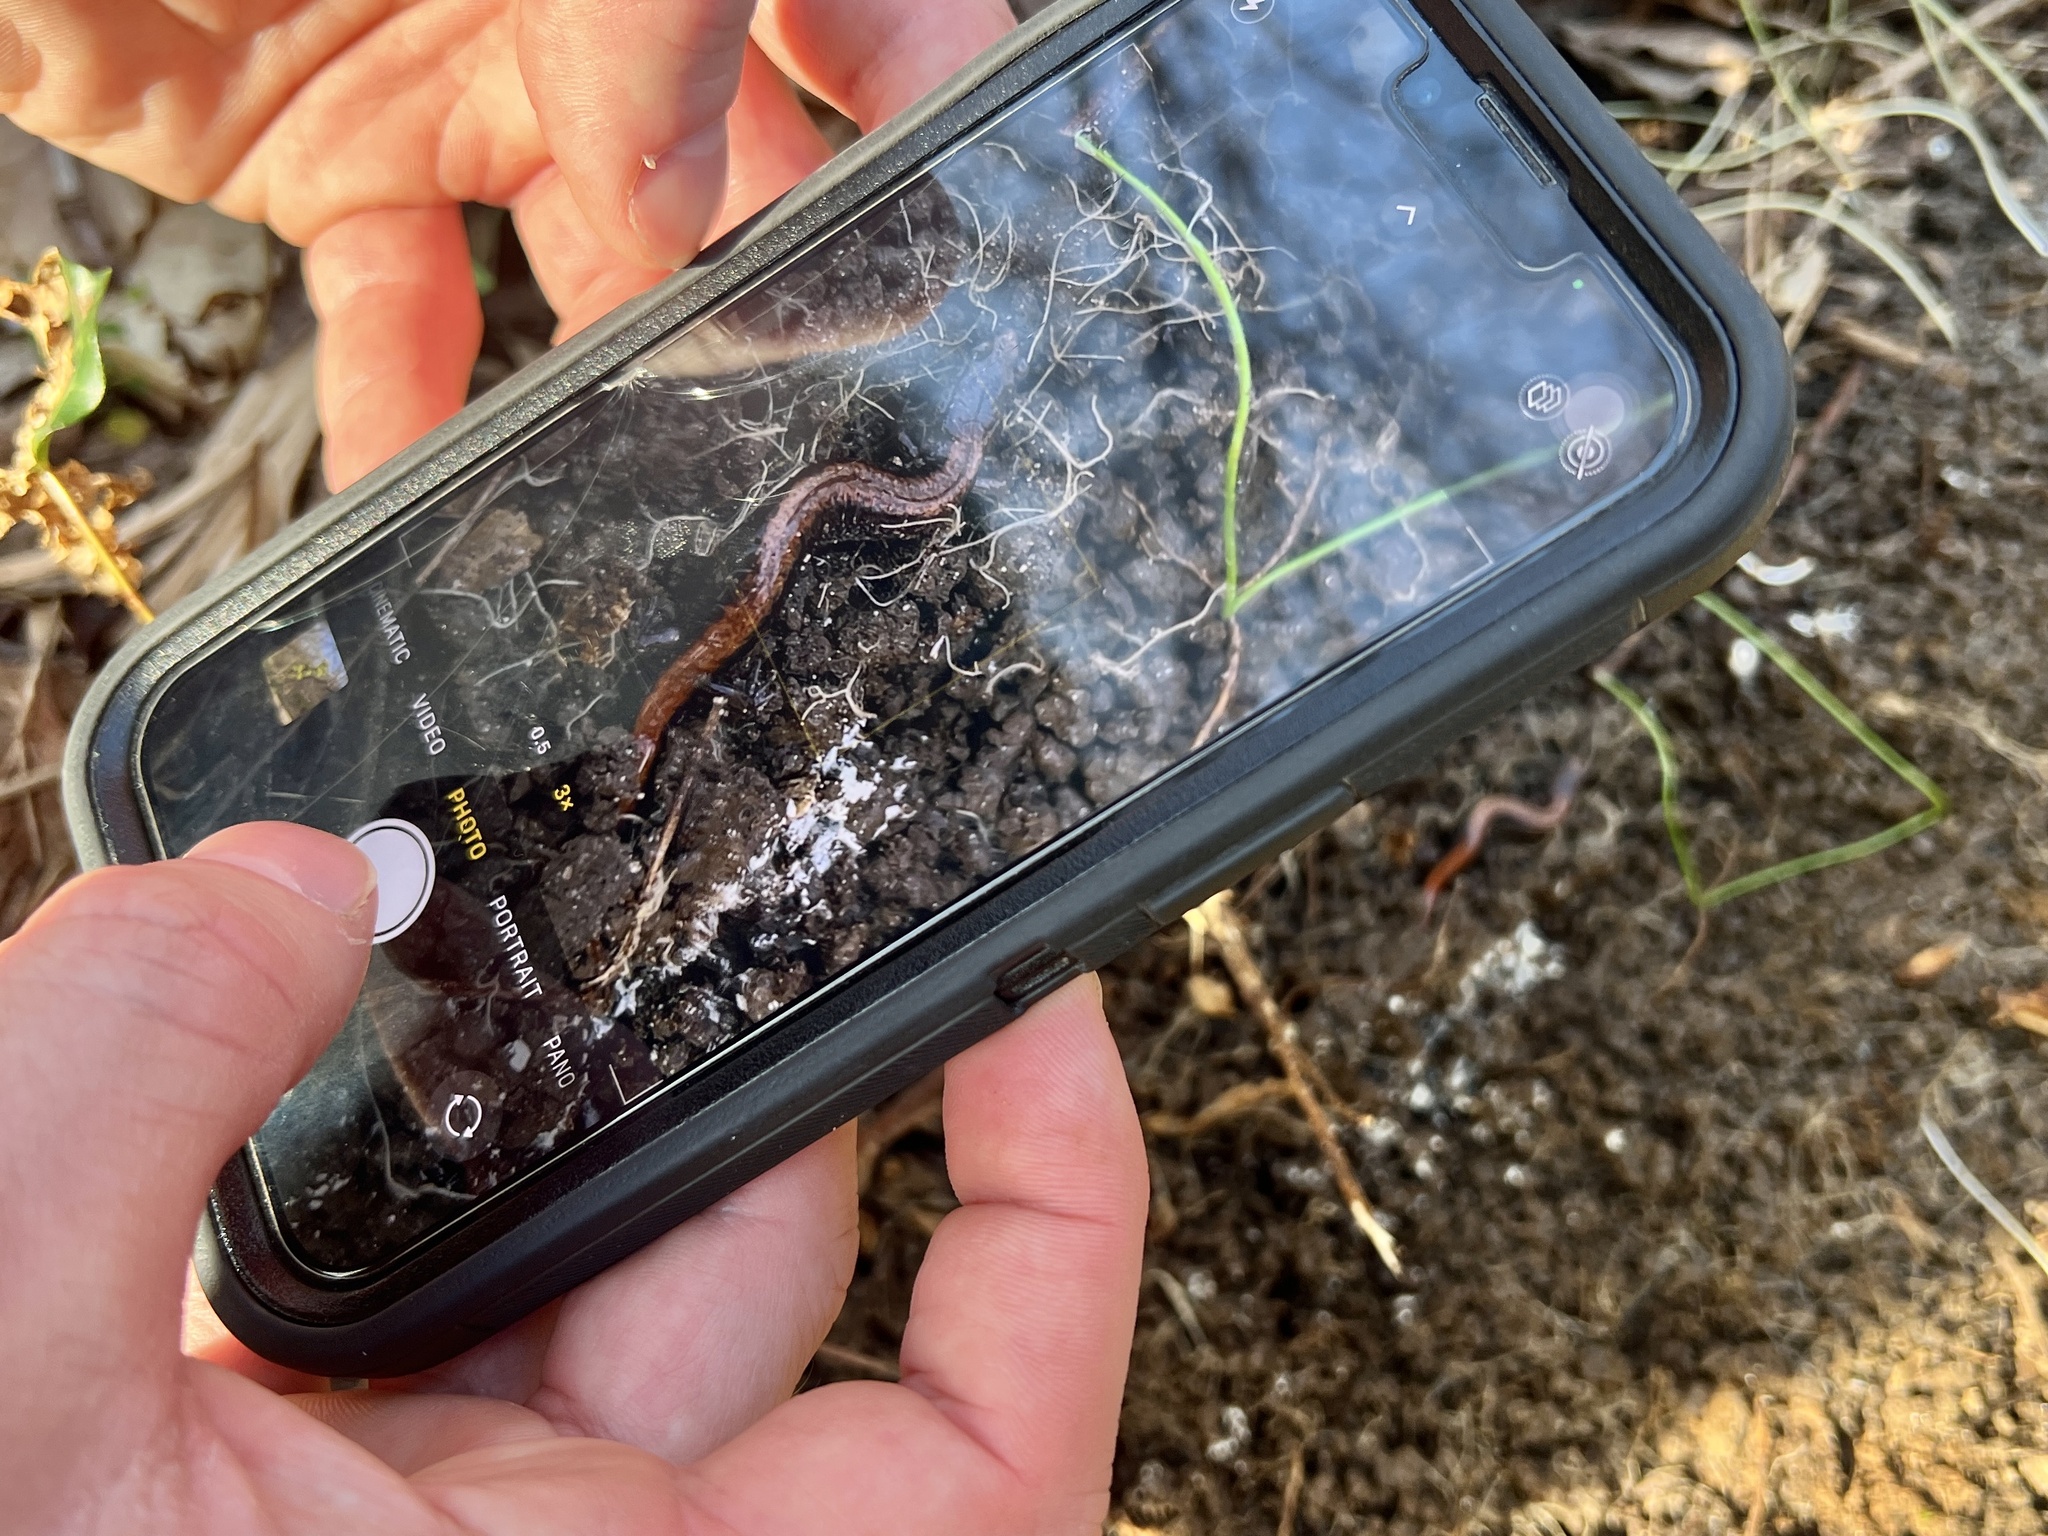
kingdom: Animalia
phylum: Chordata
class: Amphibia
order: Caudata
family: Plethodontidae
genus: Plethodon
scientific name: Plethodon cinereus
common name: Redback salamander
